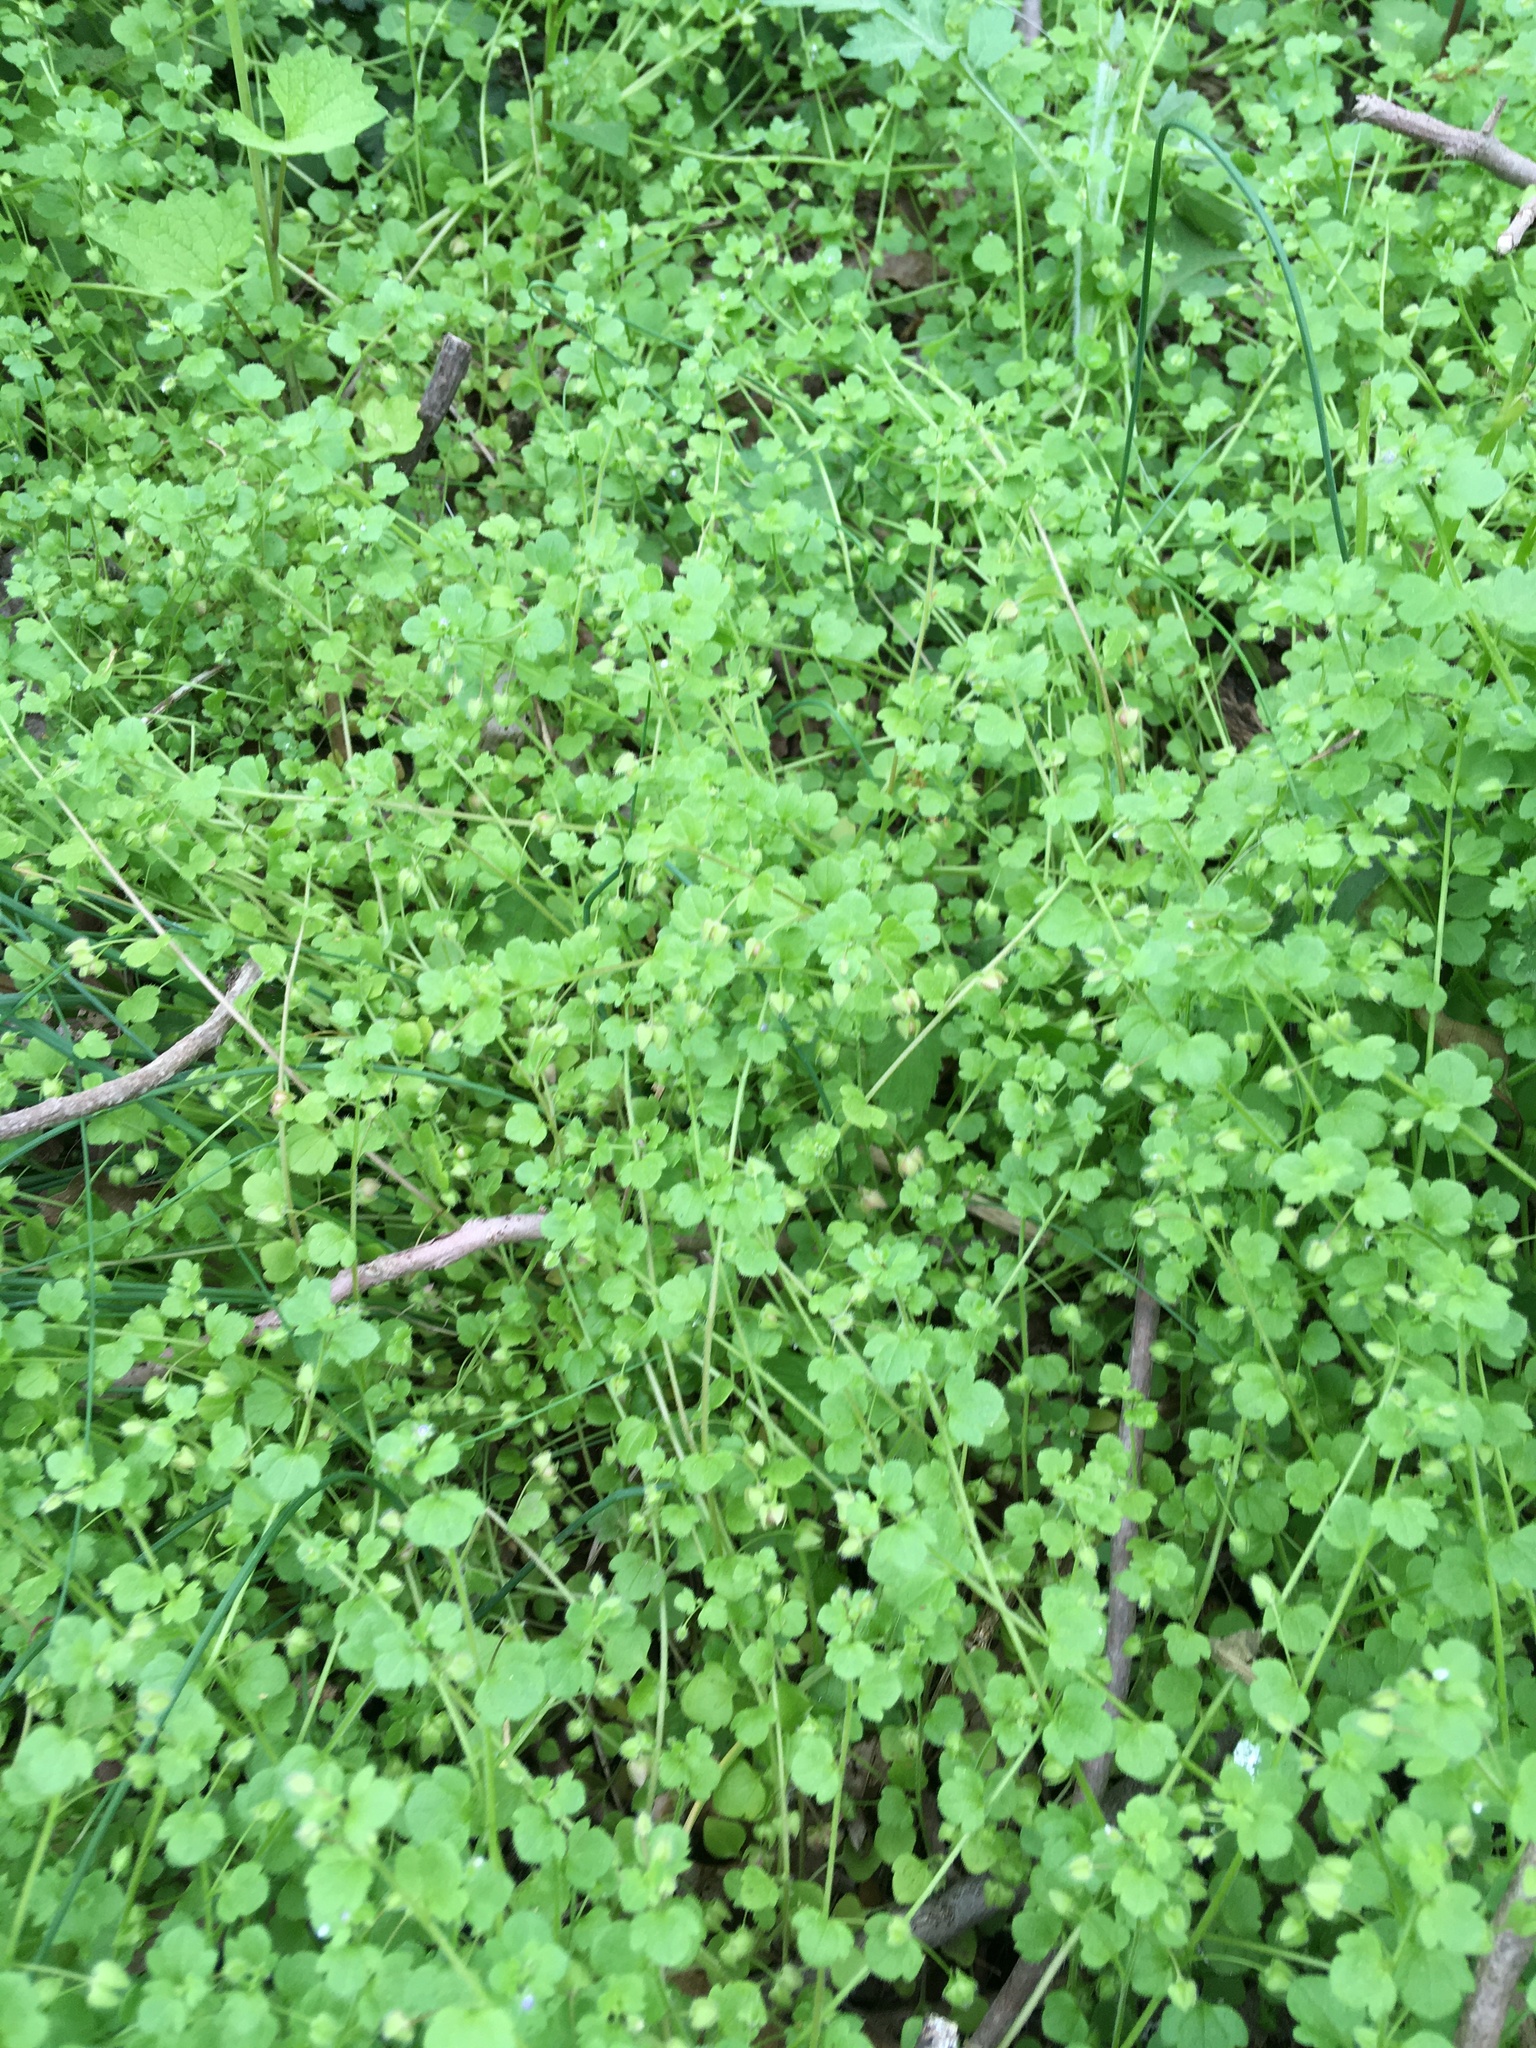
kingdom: Plantae
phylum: Tracheophyta
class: Magnoliopsida
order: Lamiales
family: Plantaginaceae
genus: Veronica
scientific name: Veronica hederifolia
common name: Ivy-leaved speedwell
